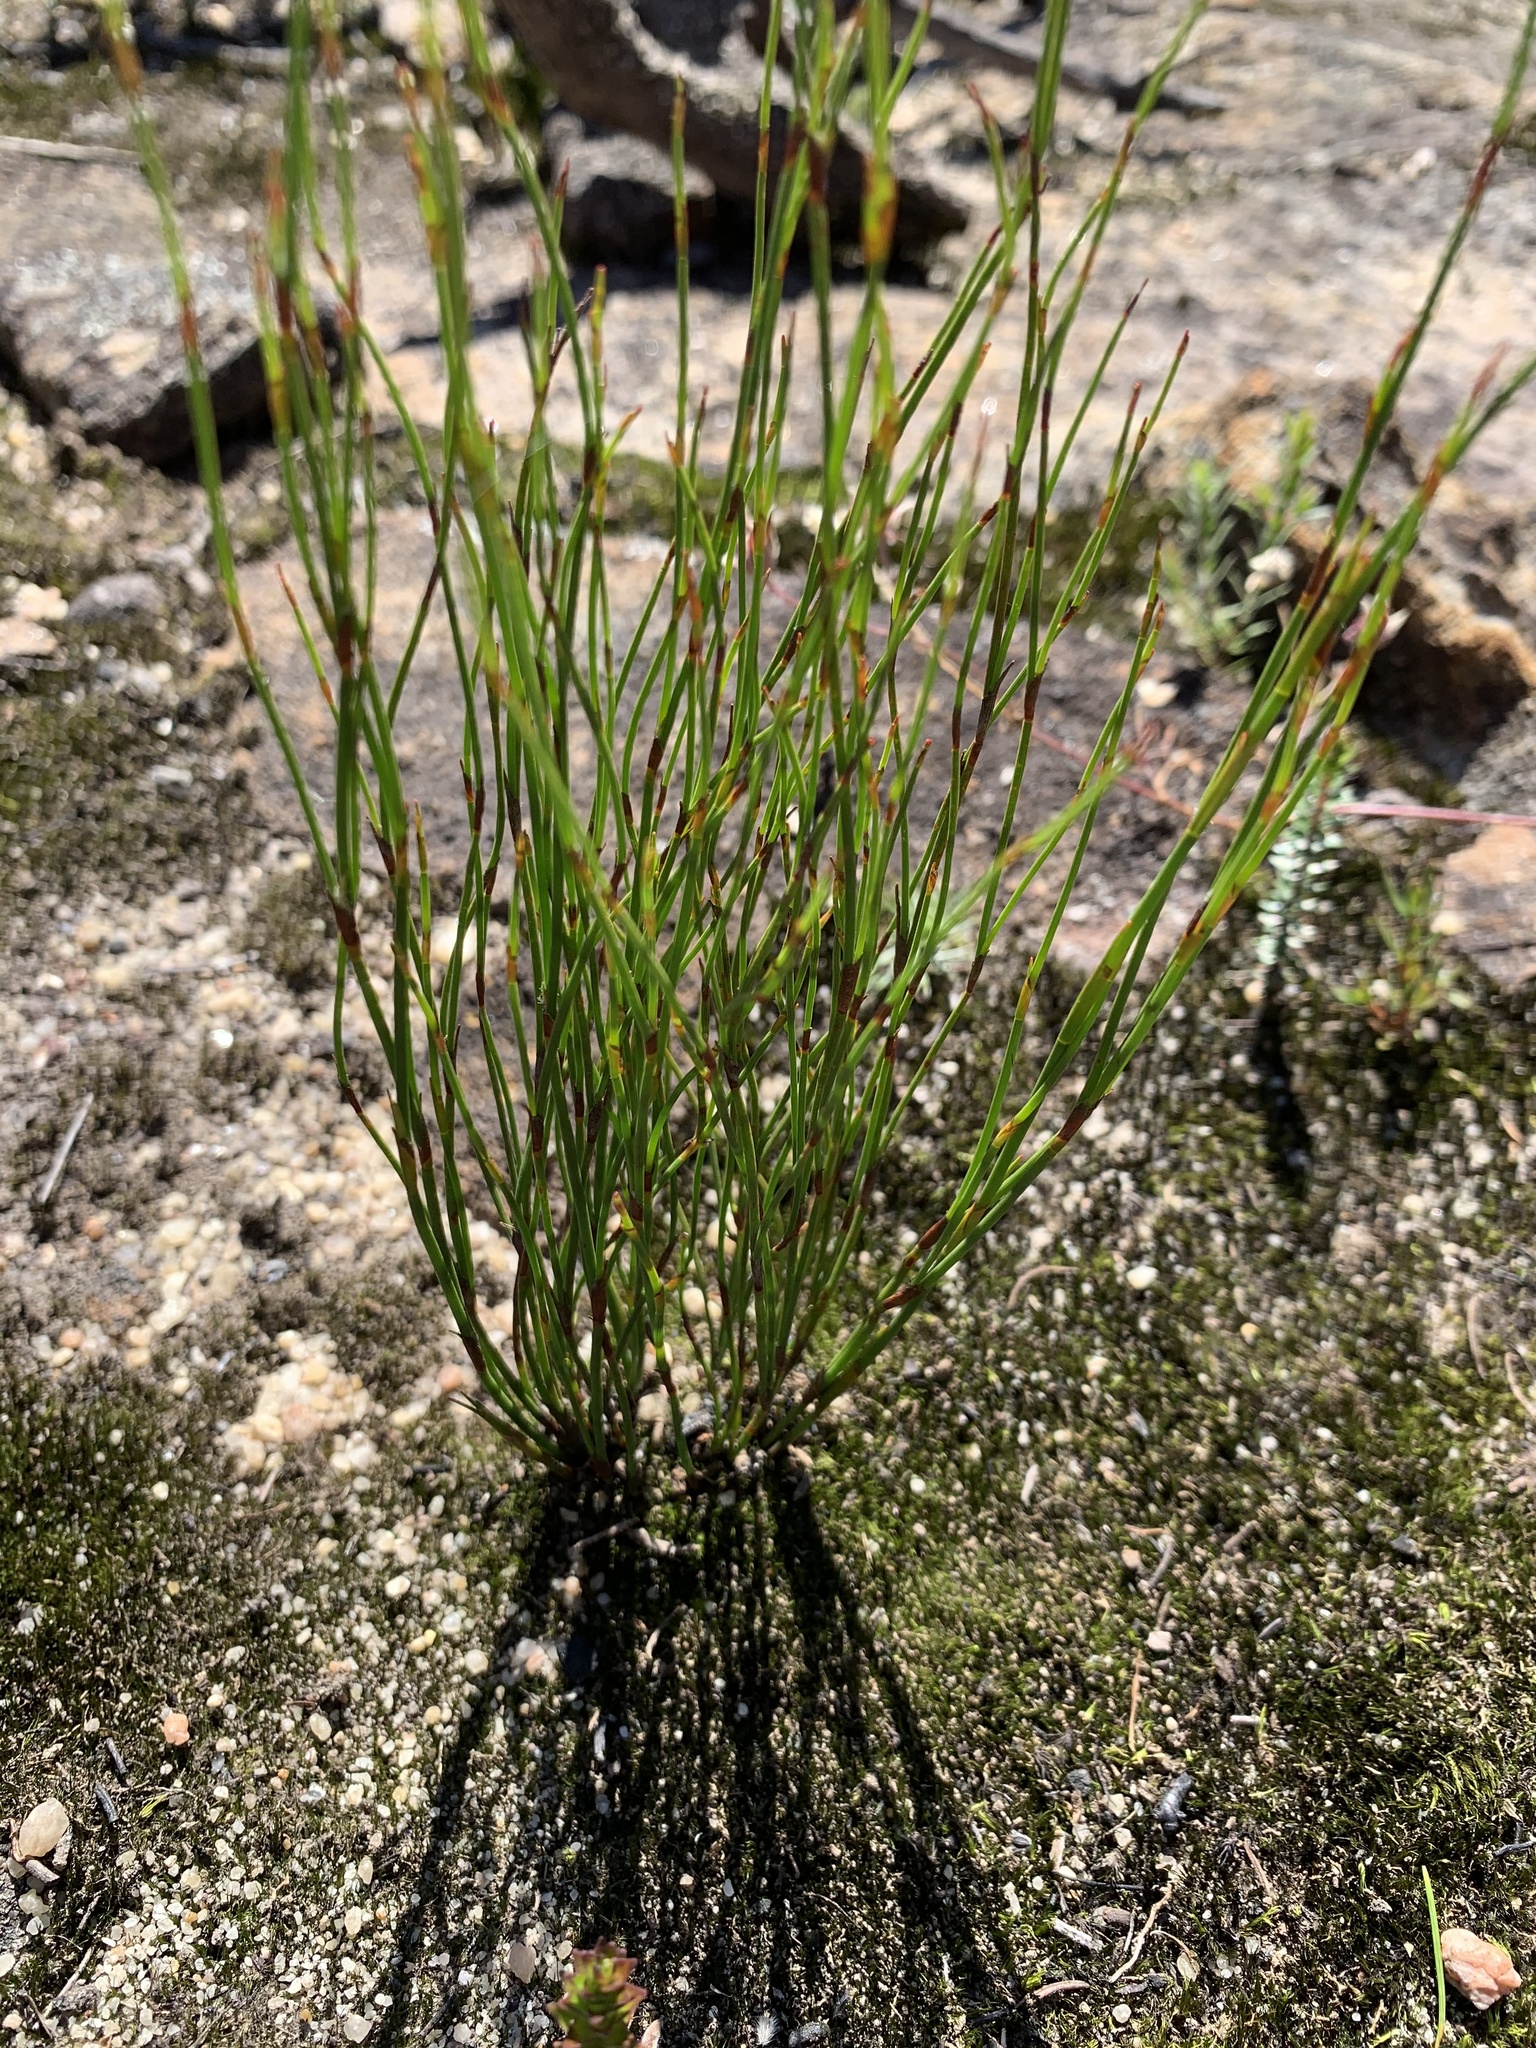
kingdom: Plantae
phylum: Tracheophyta
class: Liliopsida
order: Poales
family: Restionaceae
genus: Empodisma
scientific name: Empodisma minus
